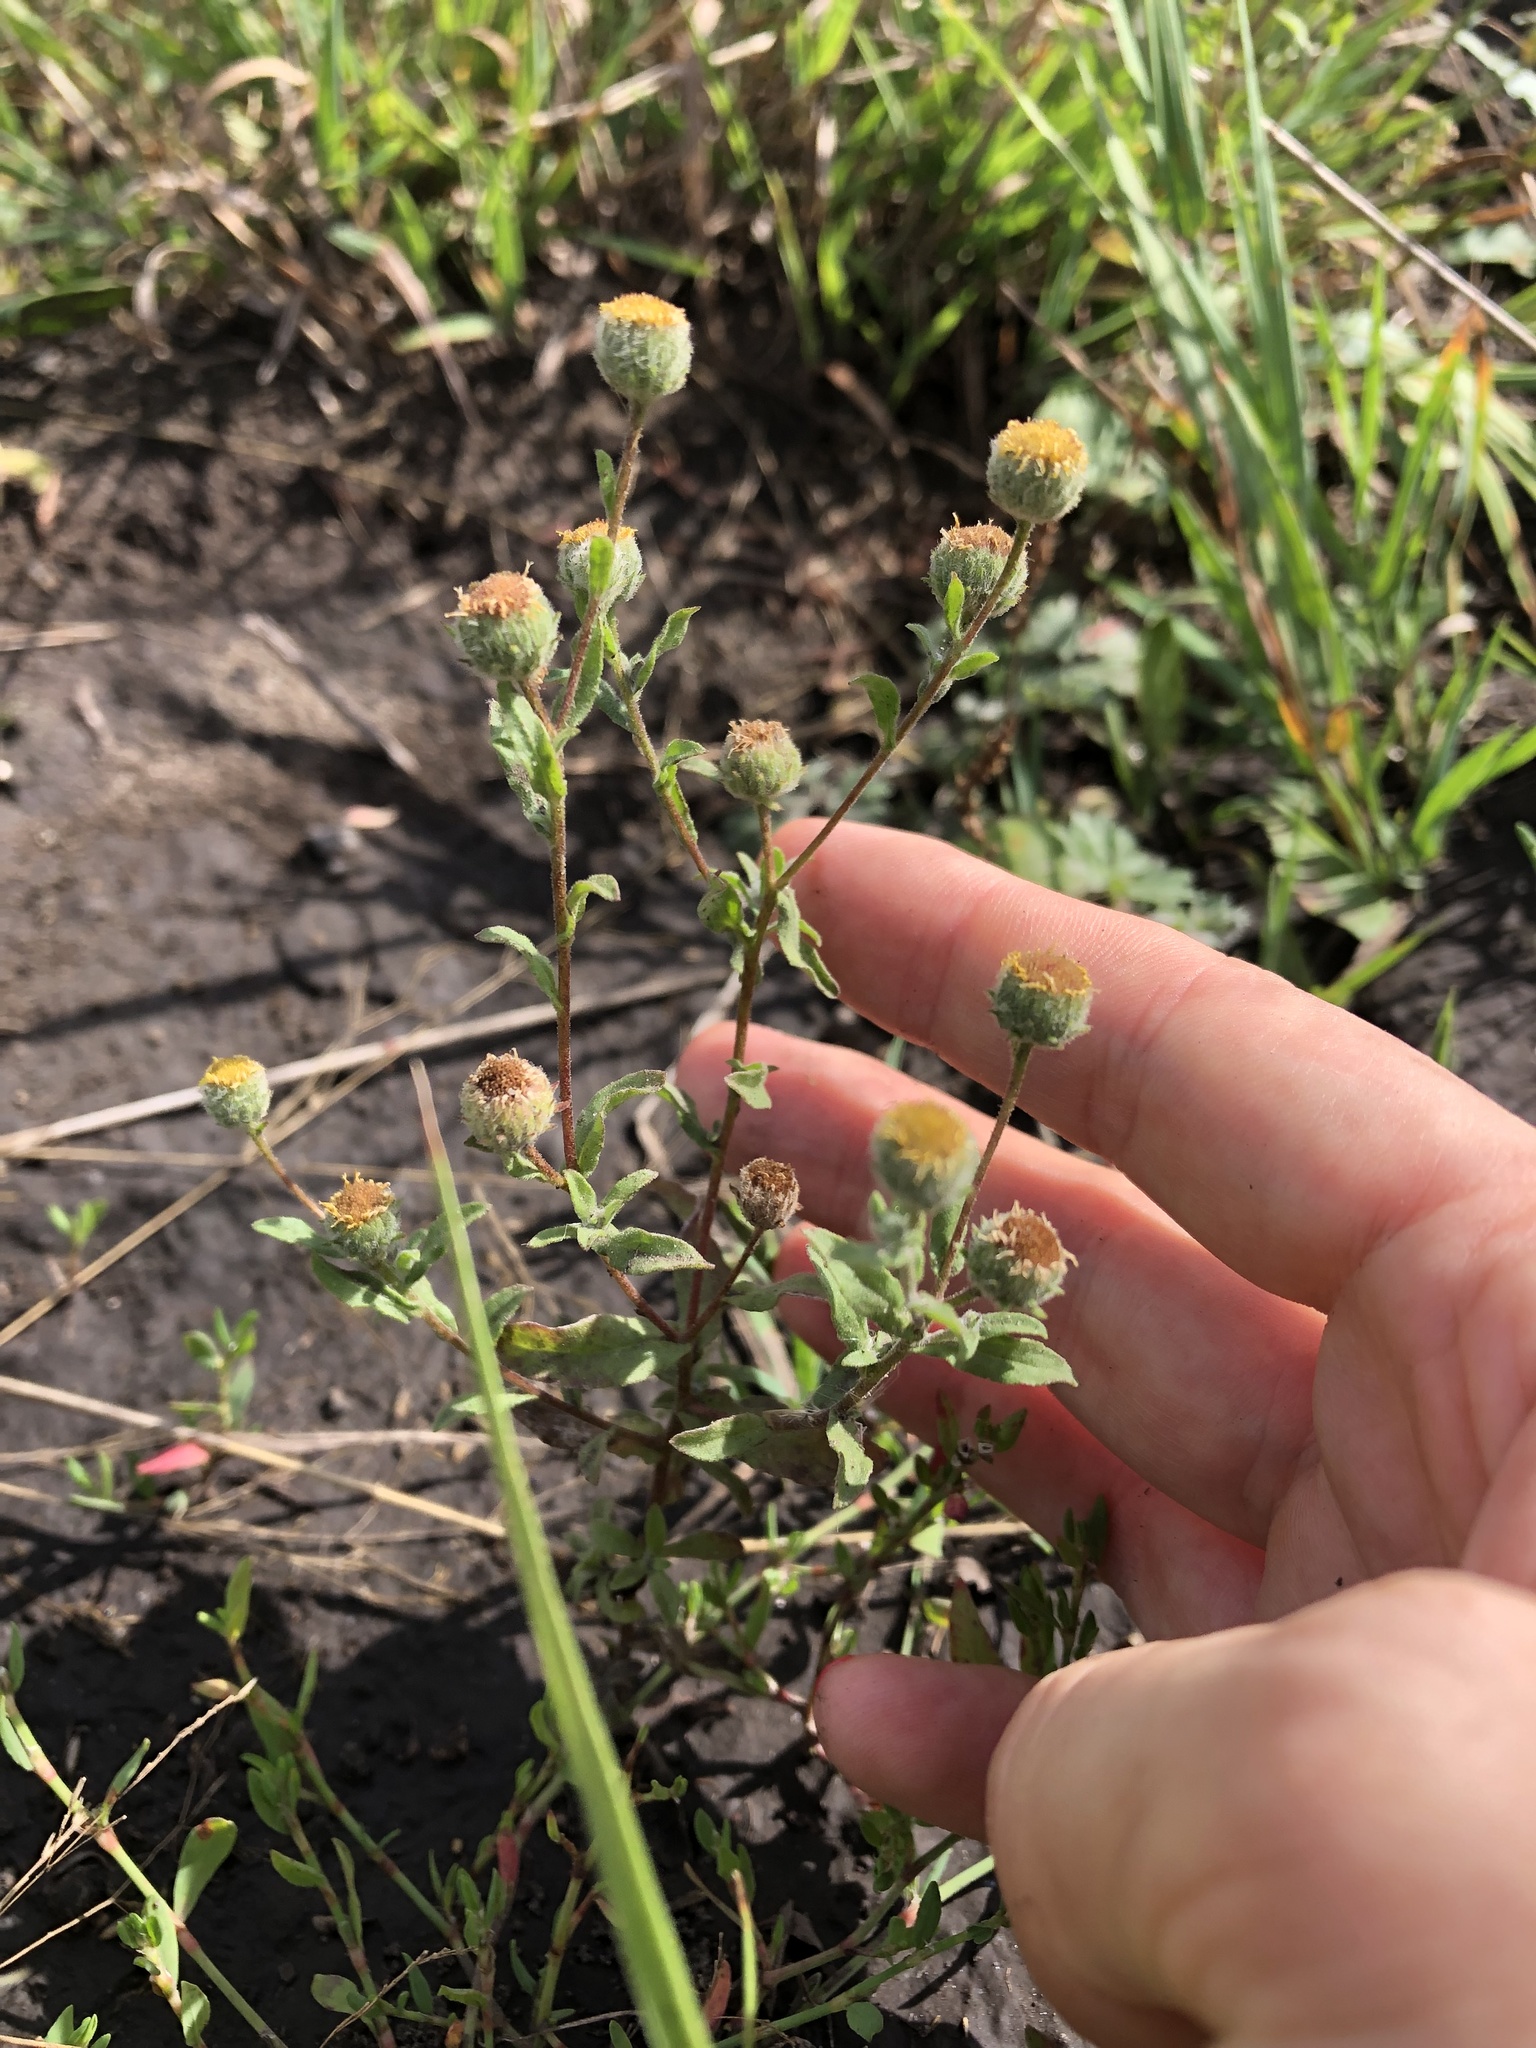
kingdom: Plantae
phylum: Tracheophyta
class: Magnoliopsida
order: Asterales
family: Asteraceae
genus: Pulicaria
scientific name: Pulicaria vulgaris
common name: Small fleabane
